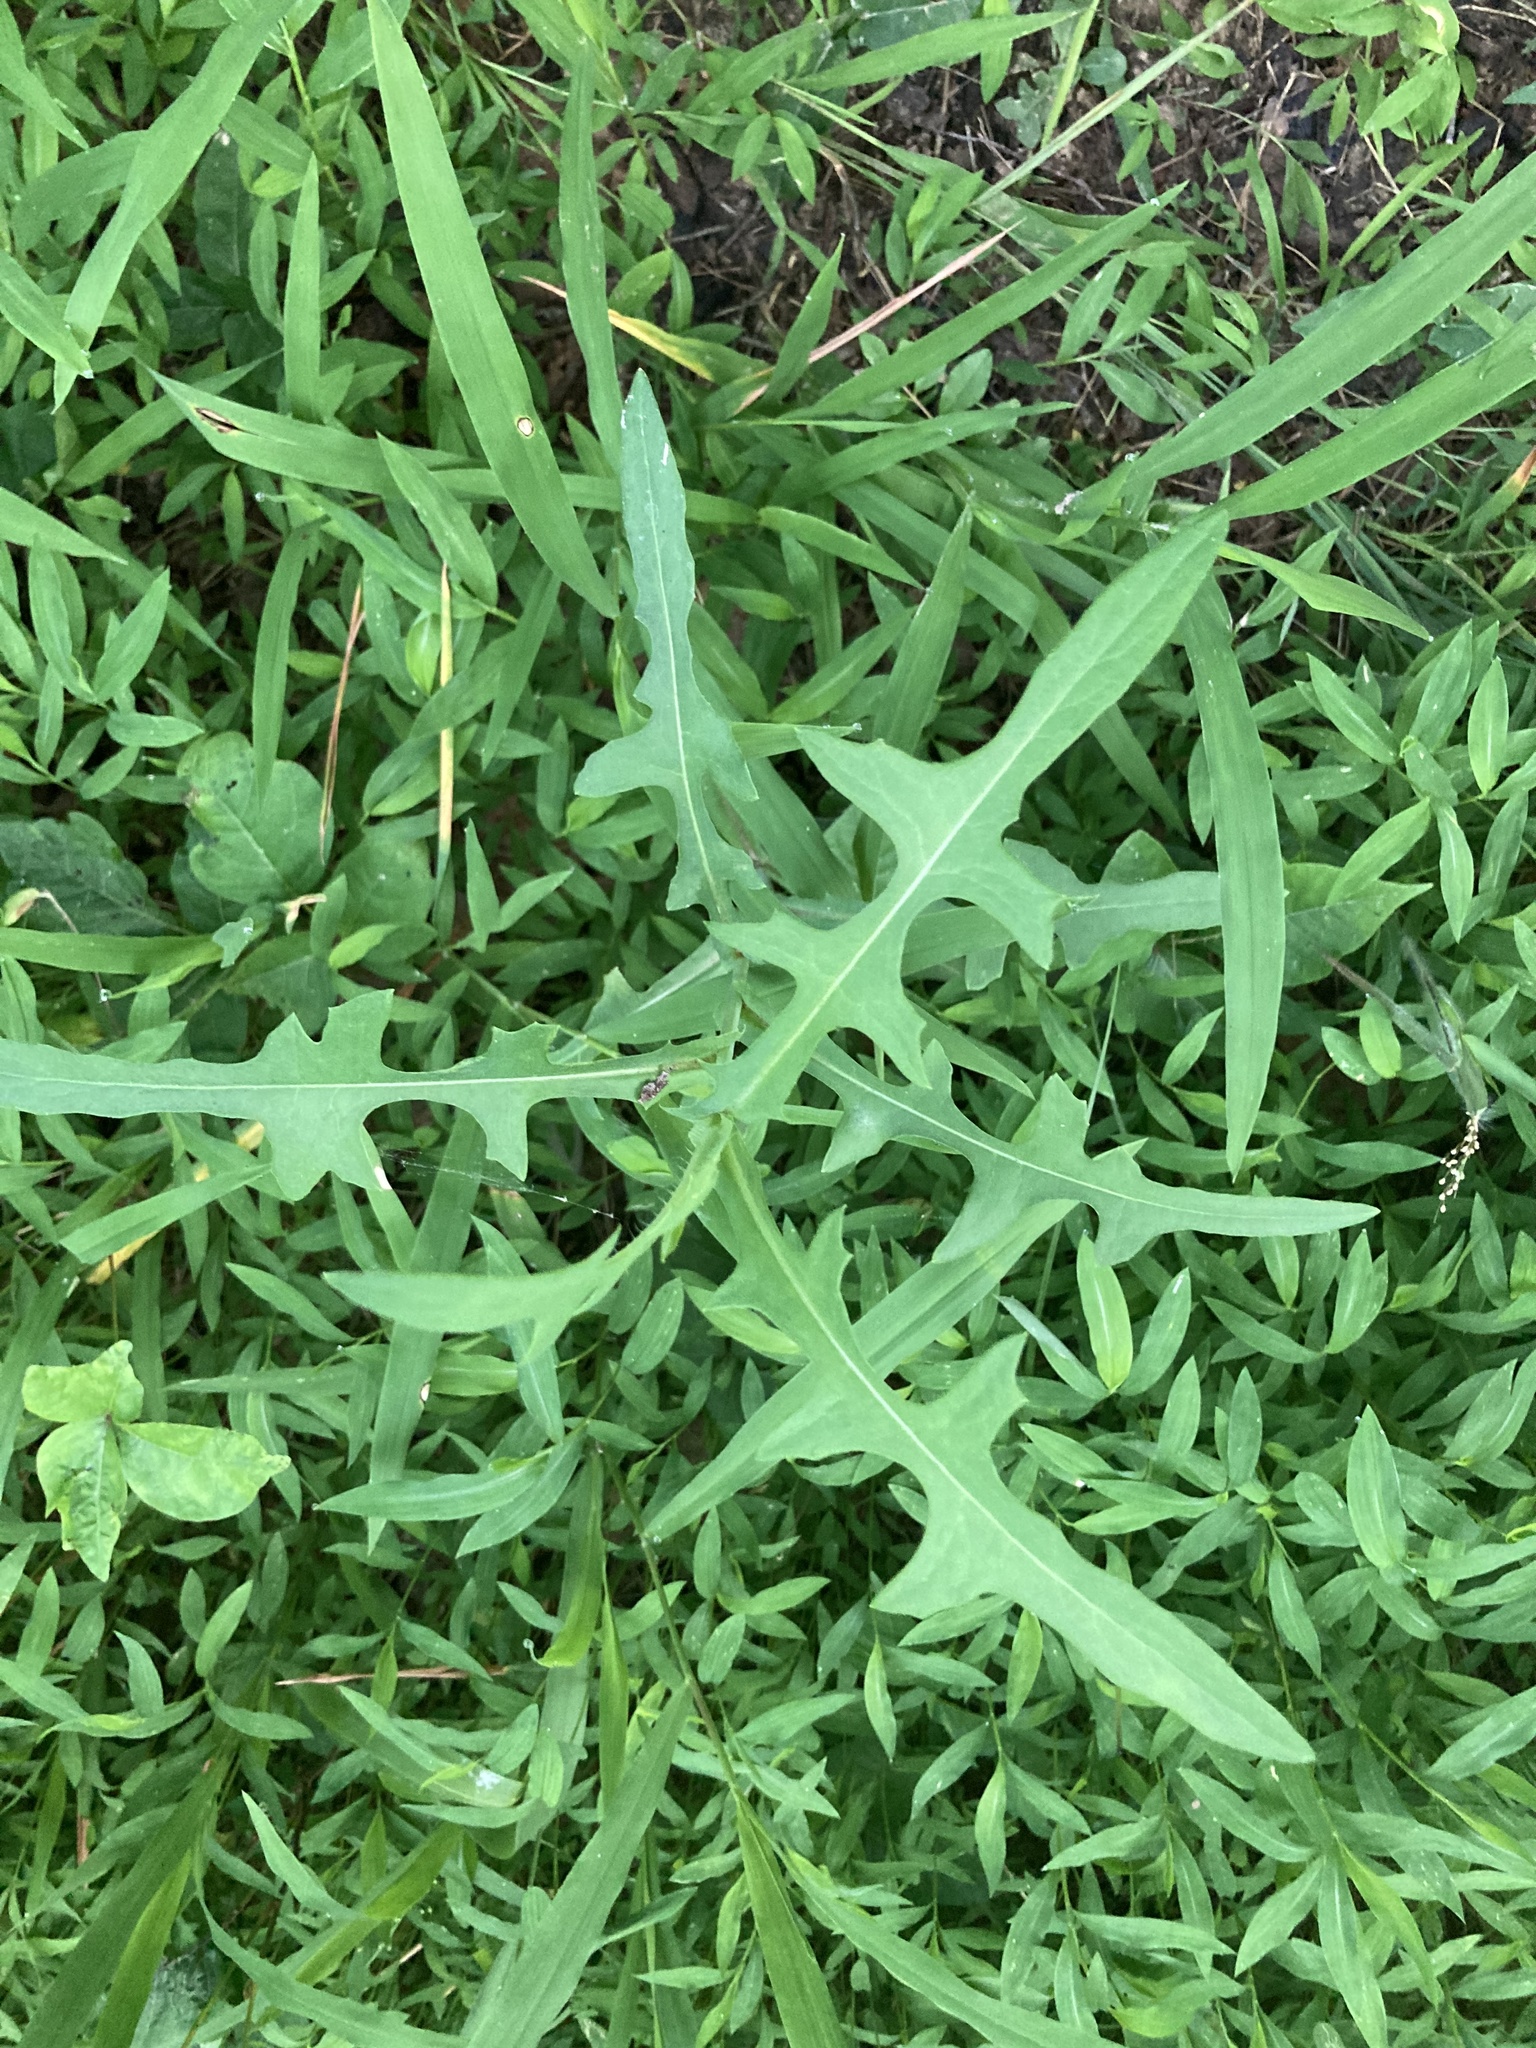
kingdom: Plantae
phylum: Tracheophyta
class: Magnoliopsida
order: Asterales
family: Asteraceae
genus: Lactuca
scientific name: Lactuca canadensis
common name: Canada lettuce
